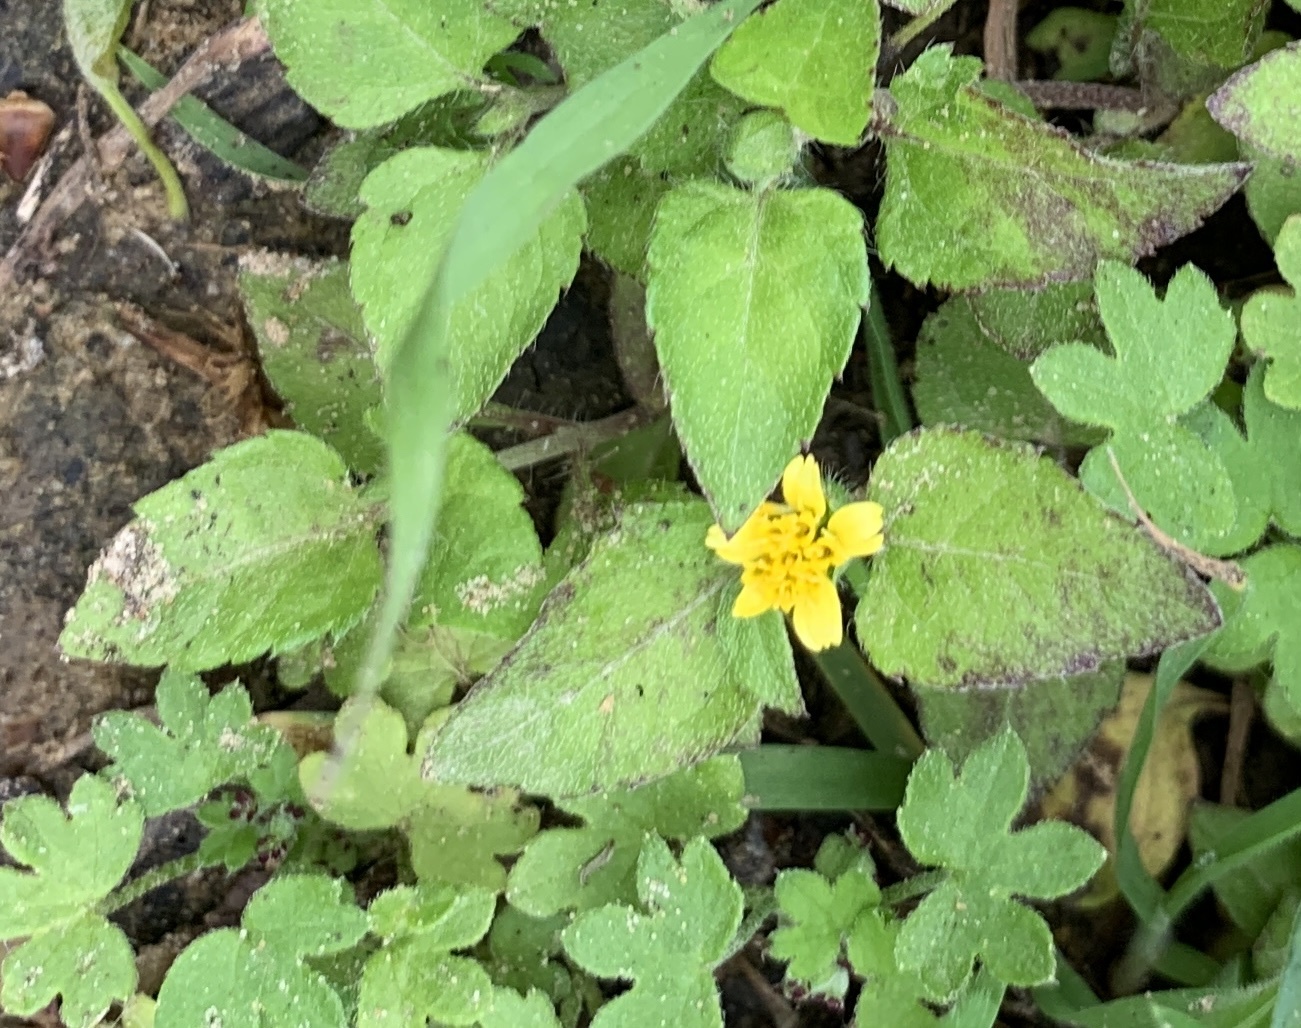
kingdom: Plantae
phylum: Tracheophyta
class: Magnoliopsida
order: Asterales
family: Asteraceae
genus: Calyptocarpus
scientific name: Calyptocarpus vialis
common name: Straggler daisy
